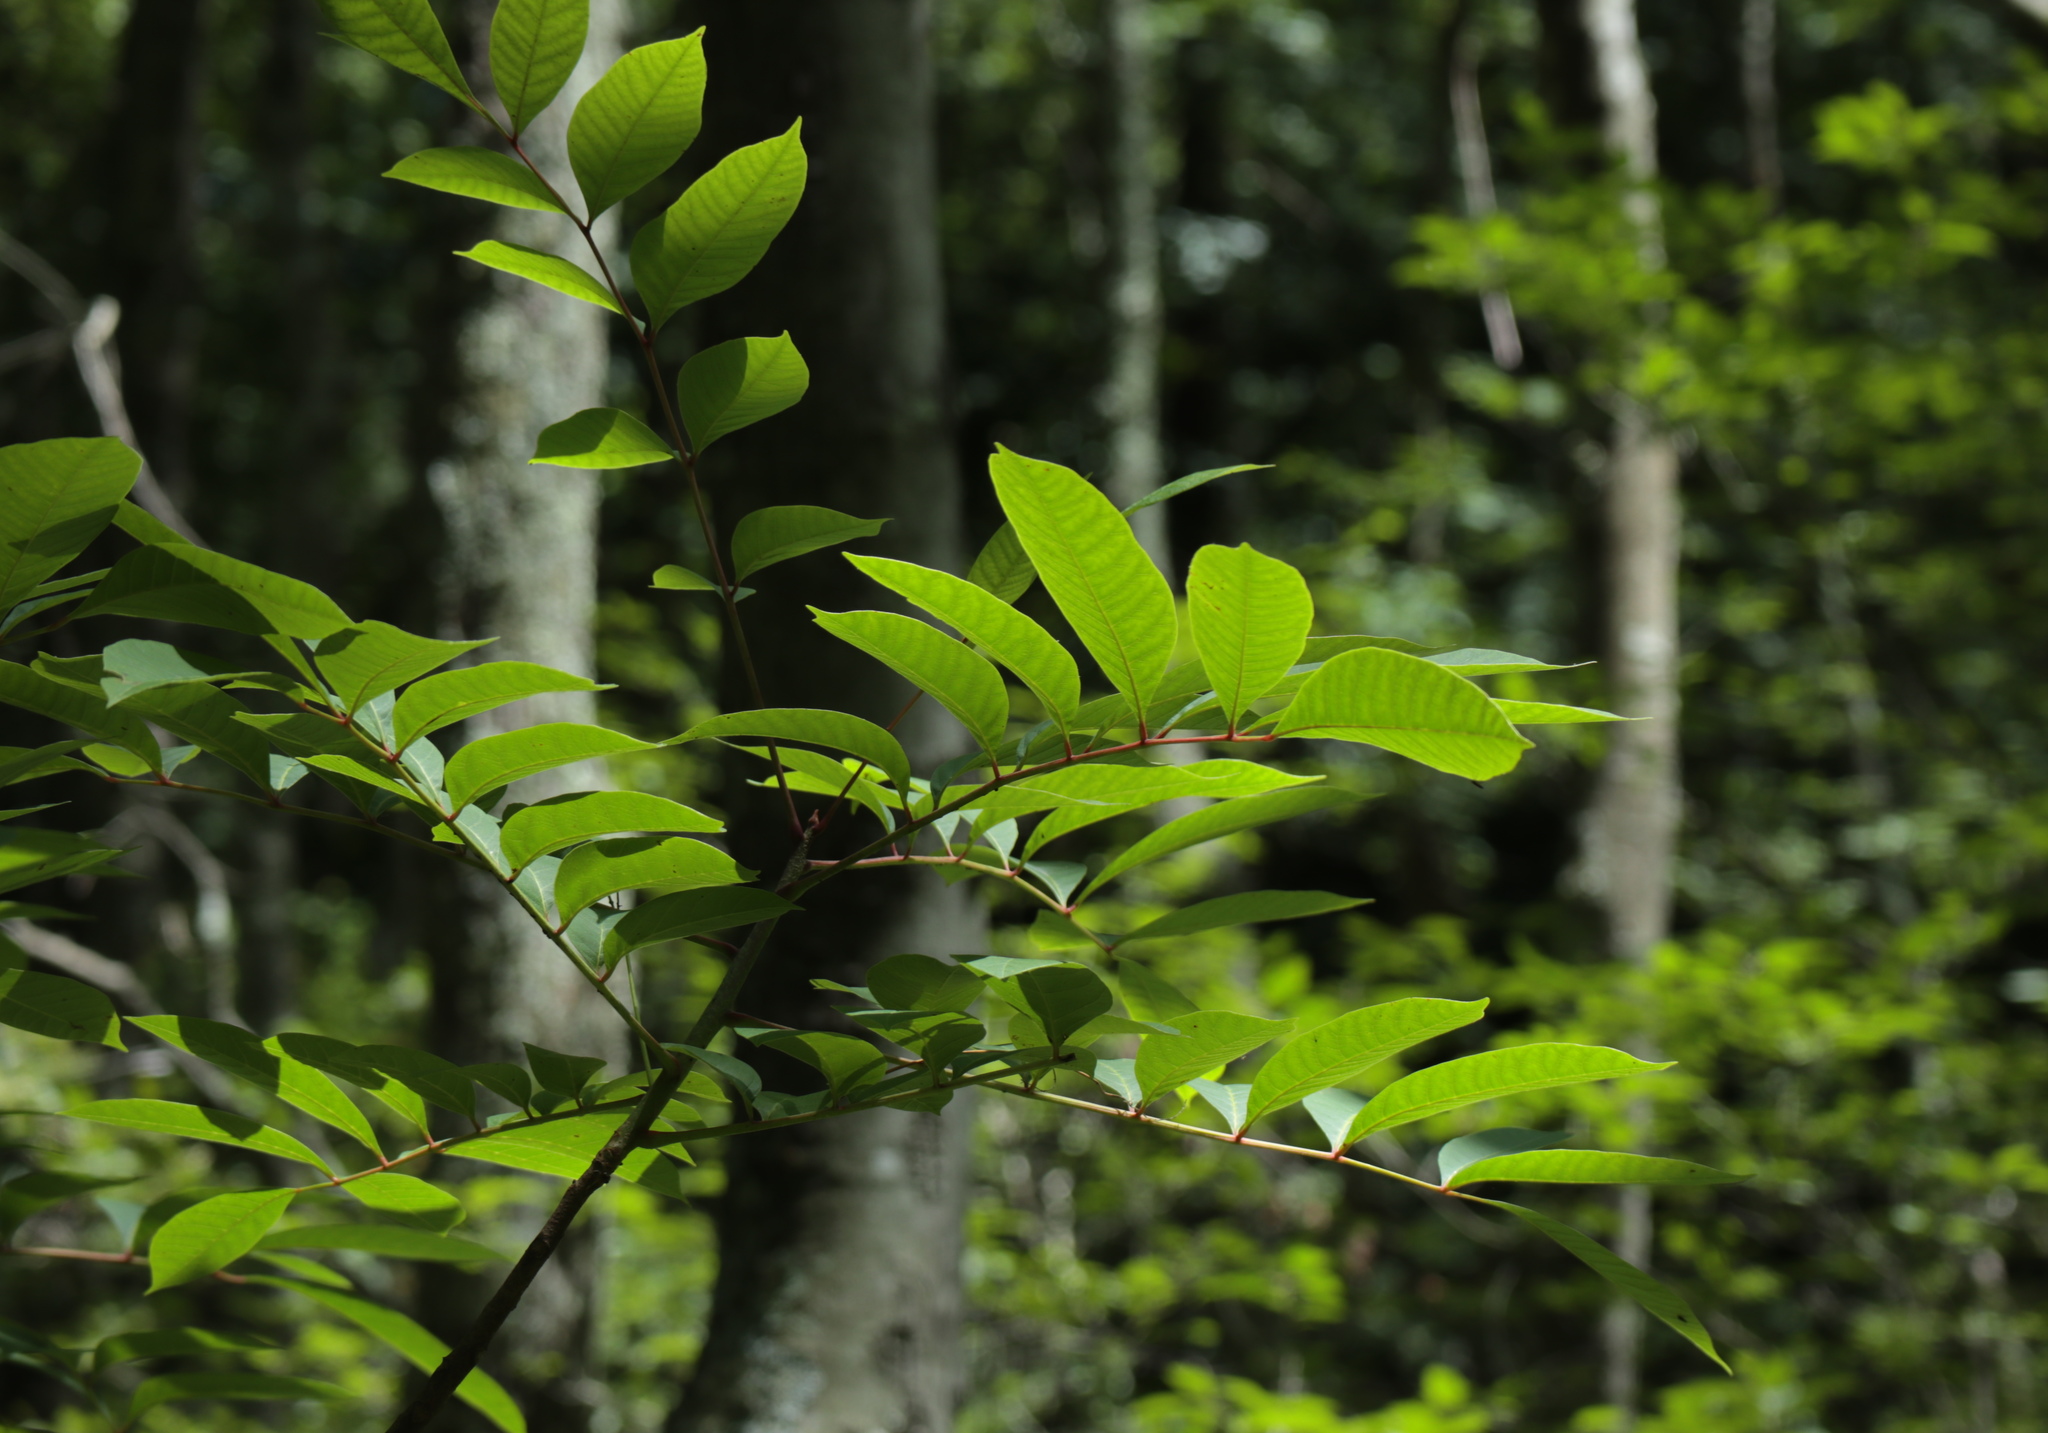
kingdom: Plantae
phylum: Tracheophyta
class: Magnoliopsida
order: Sapindales
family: Anacardiaceae
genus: Toxicodendron
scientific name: Toxicodendron vernix
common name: Poison sumac
